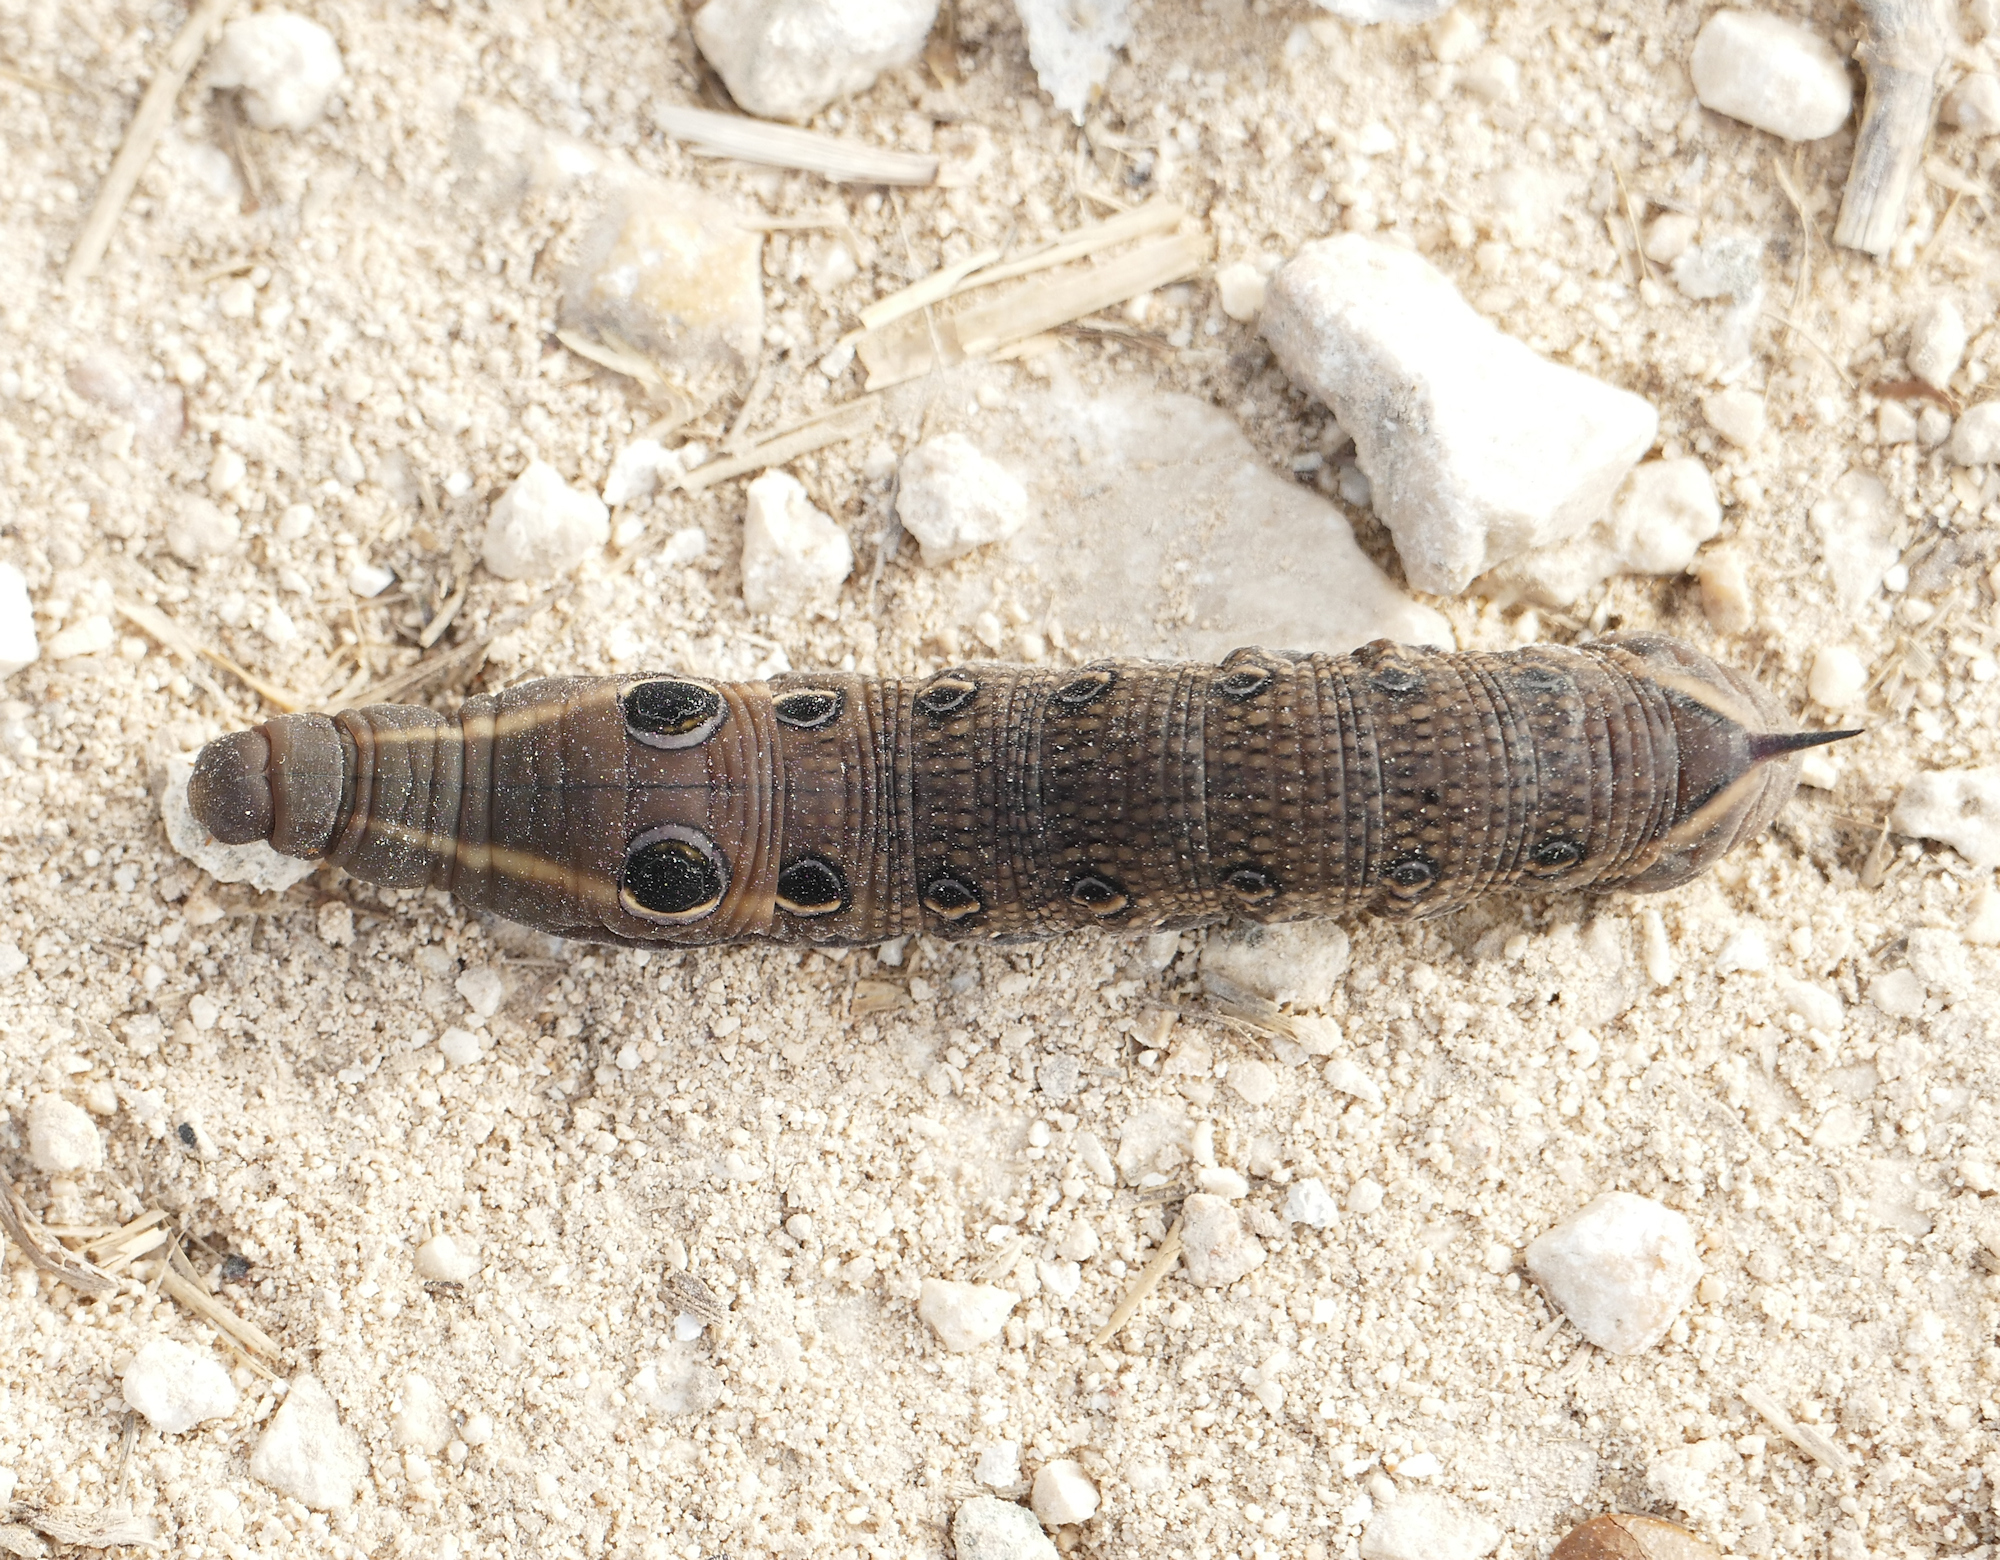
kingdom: Animalia
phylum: Arthropoda
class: Insecta
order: Lepidoptera
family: Sphingidae
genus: Xylophanes
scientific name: Xylophanes tersa
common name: Tersa sphinx
